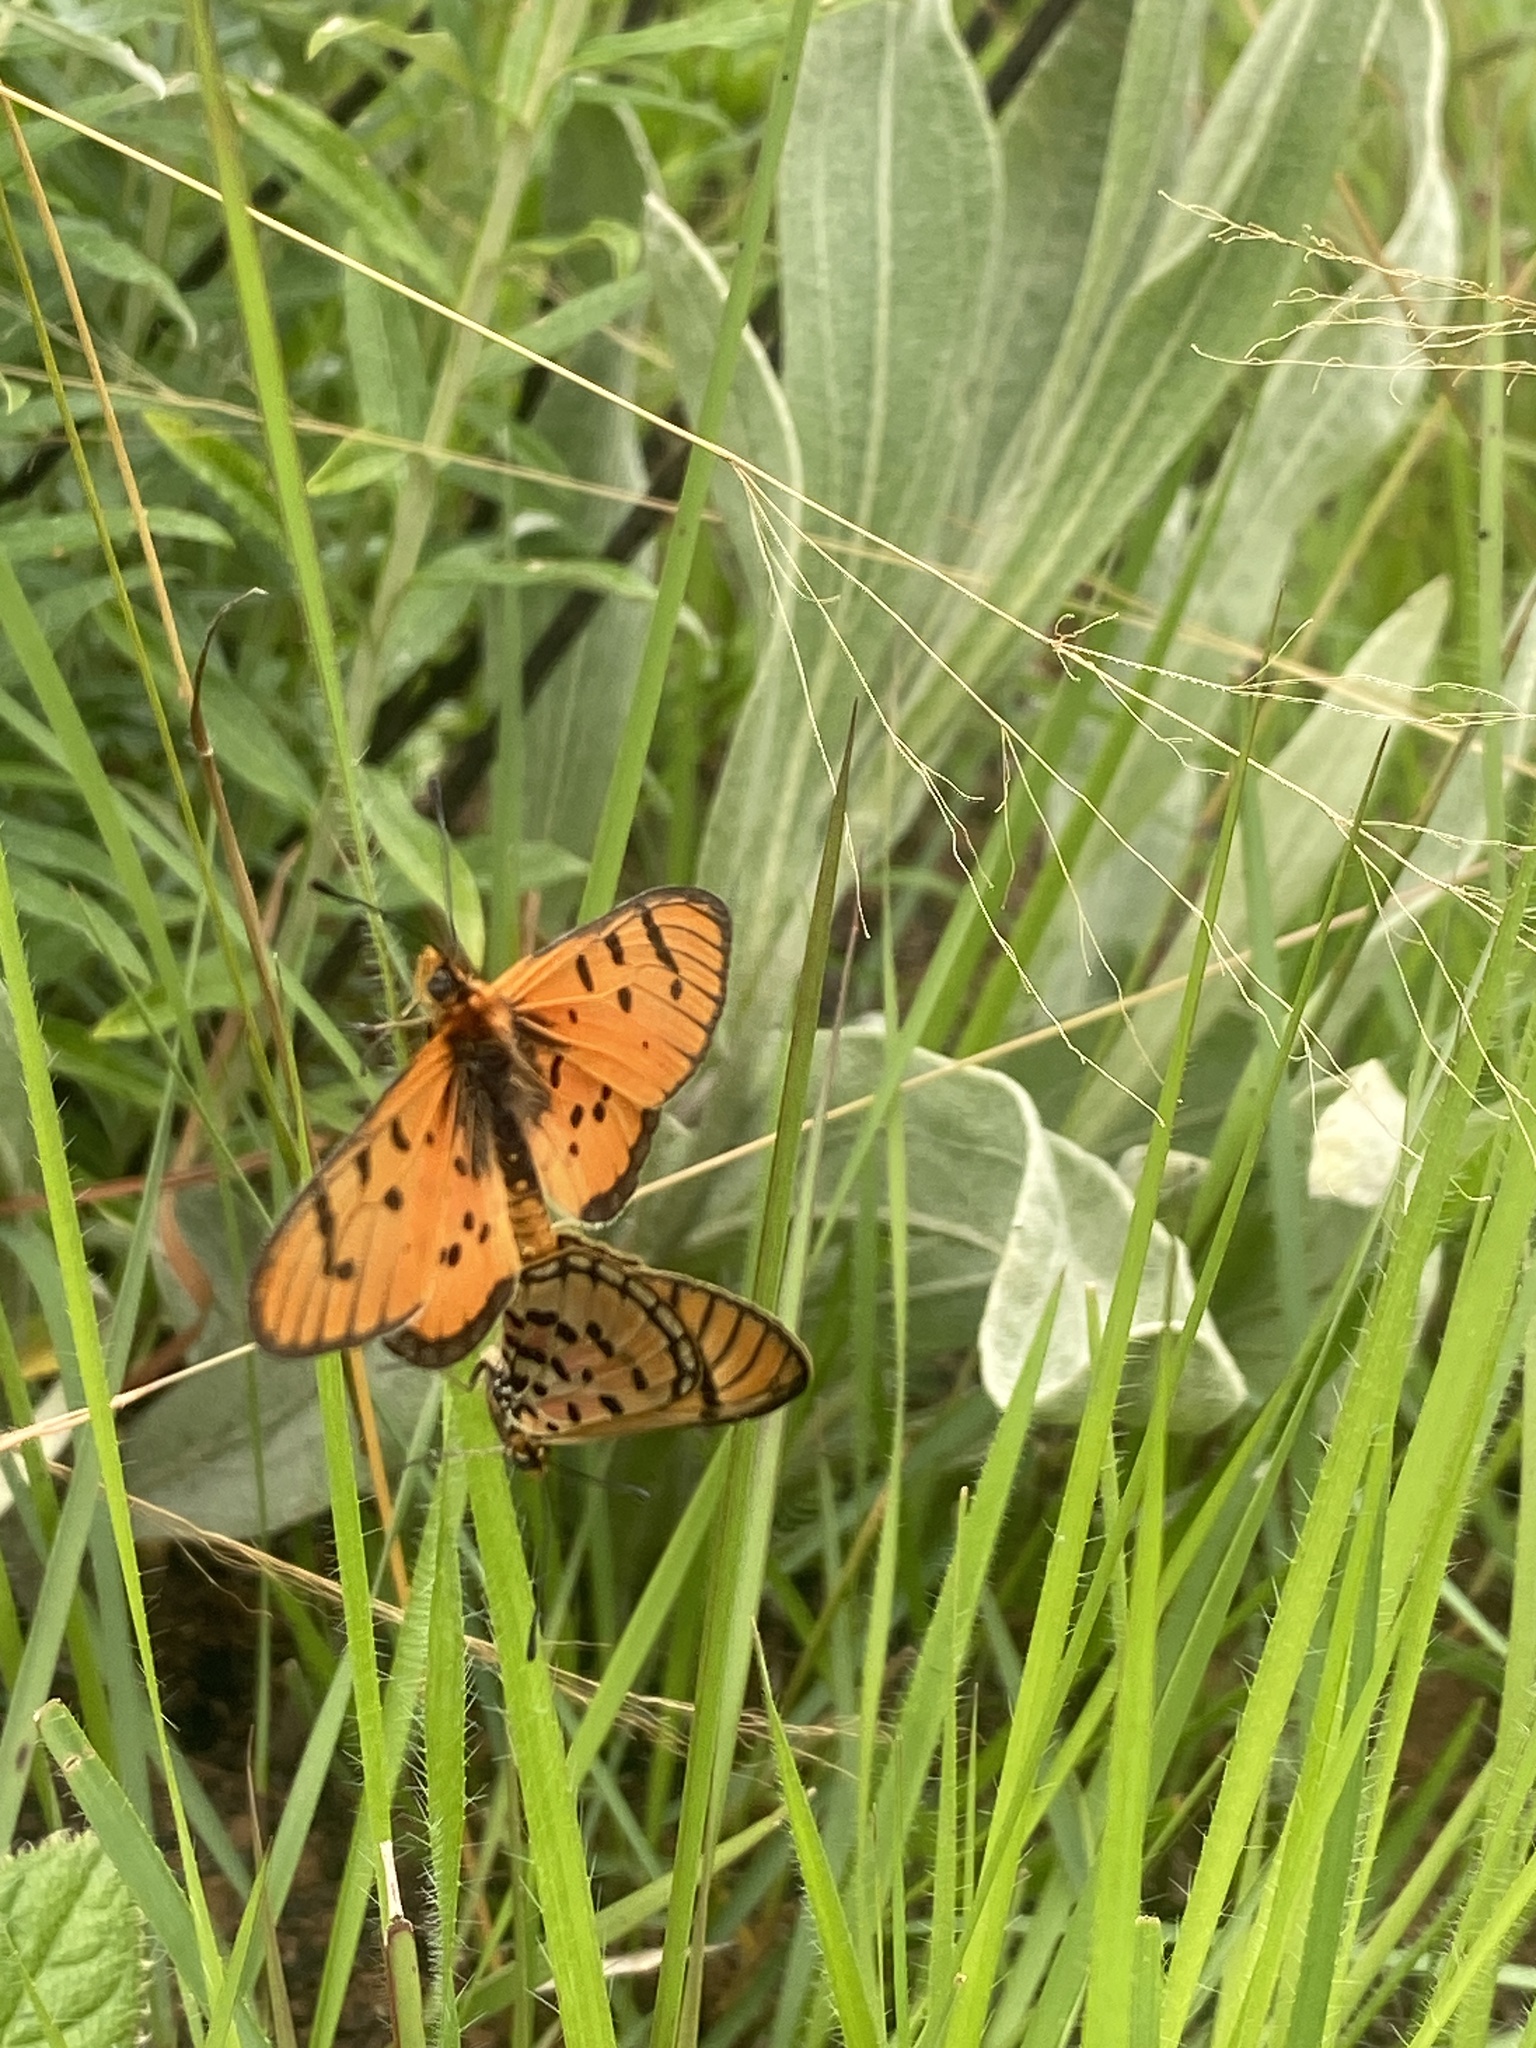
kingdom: Animalia
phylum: Arthropoda
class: Insecta
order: Lepidoptera
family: Nymphalidae
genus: Rubraea
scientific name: Rubraea
